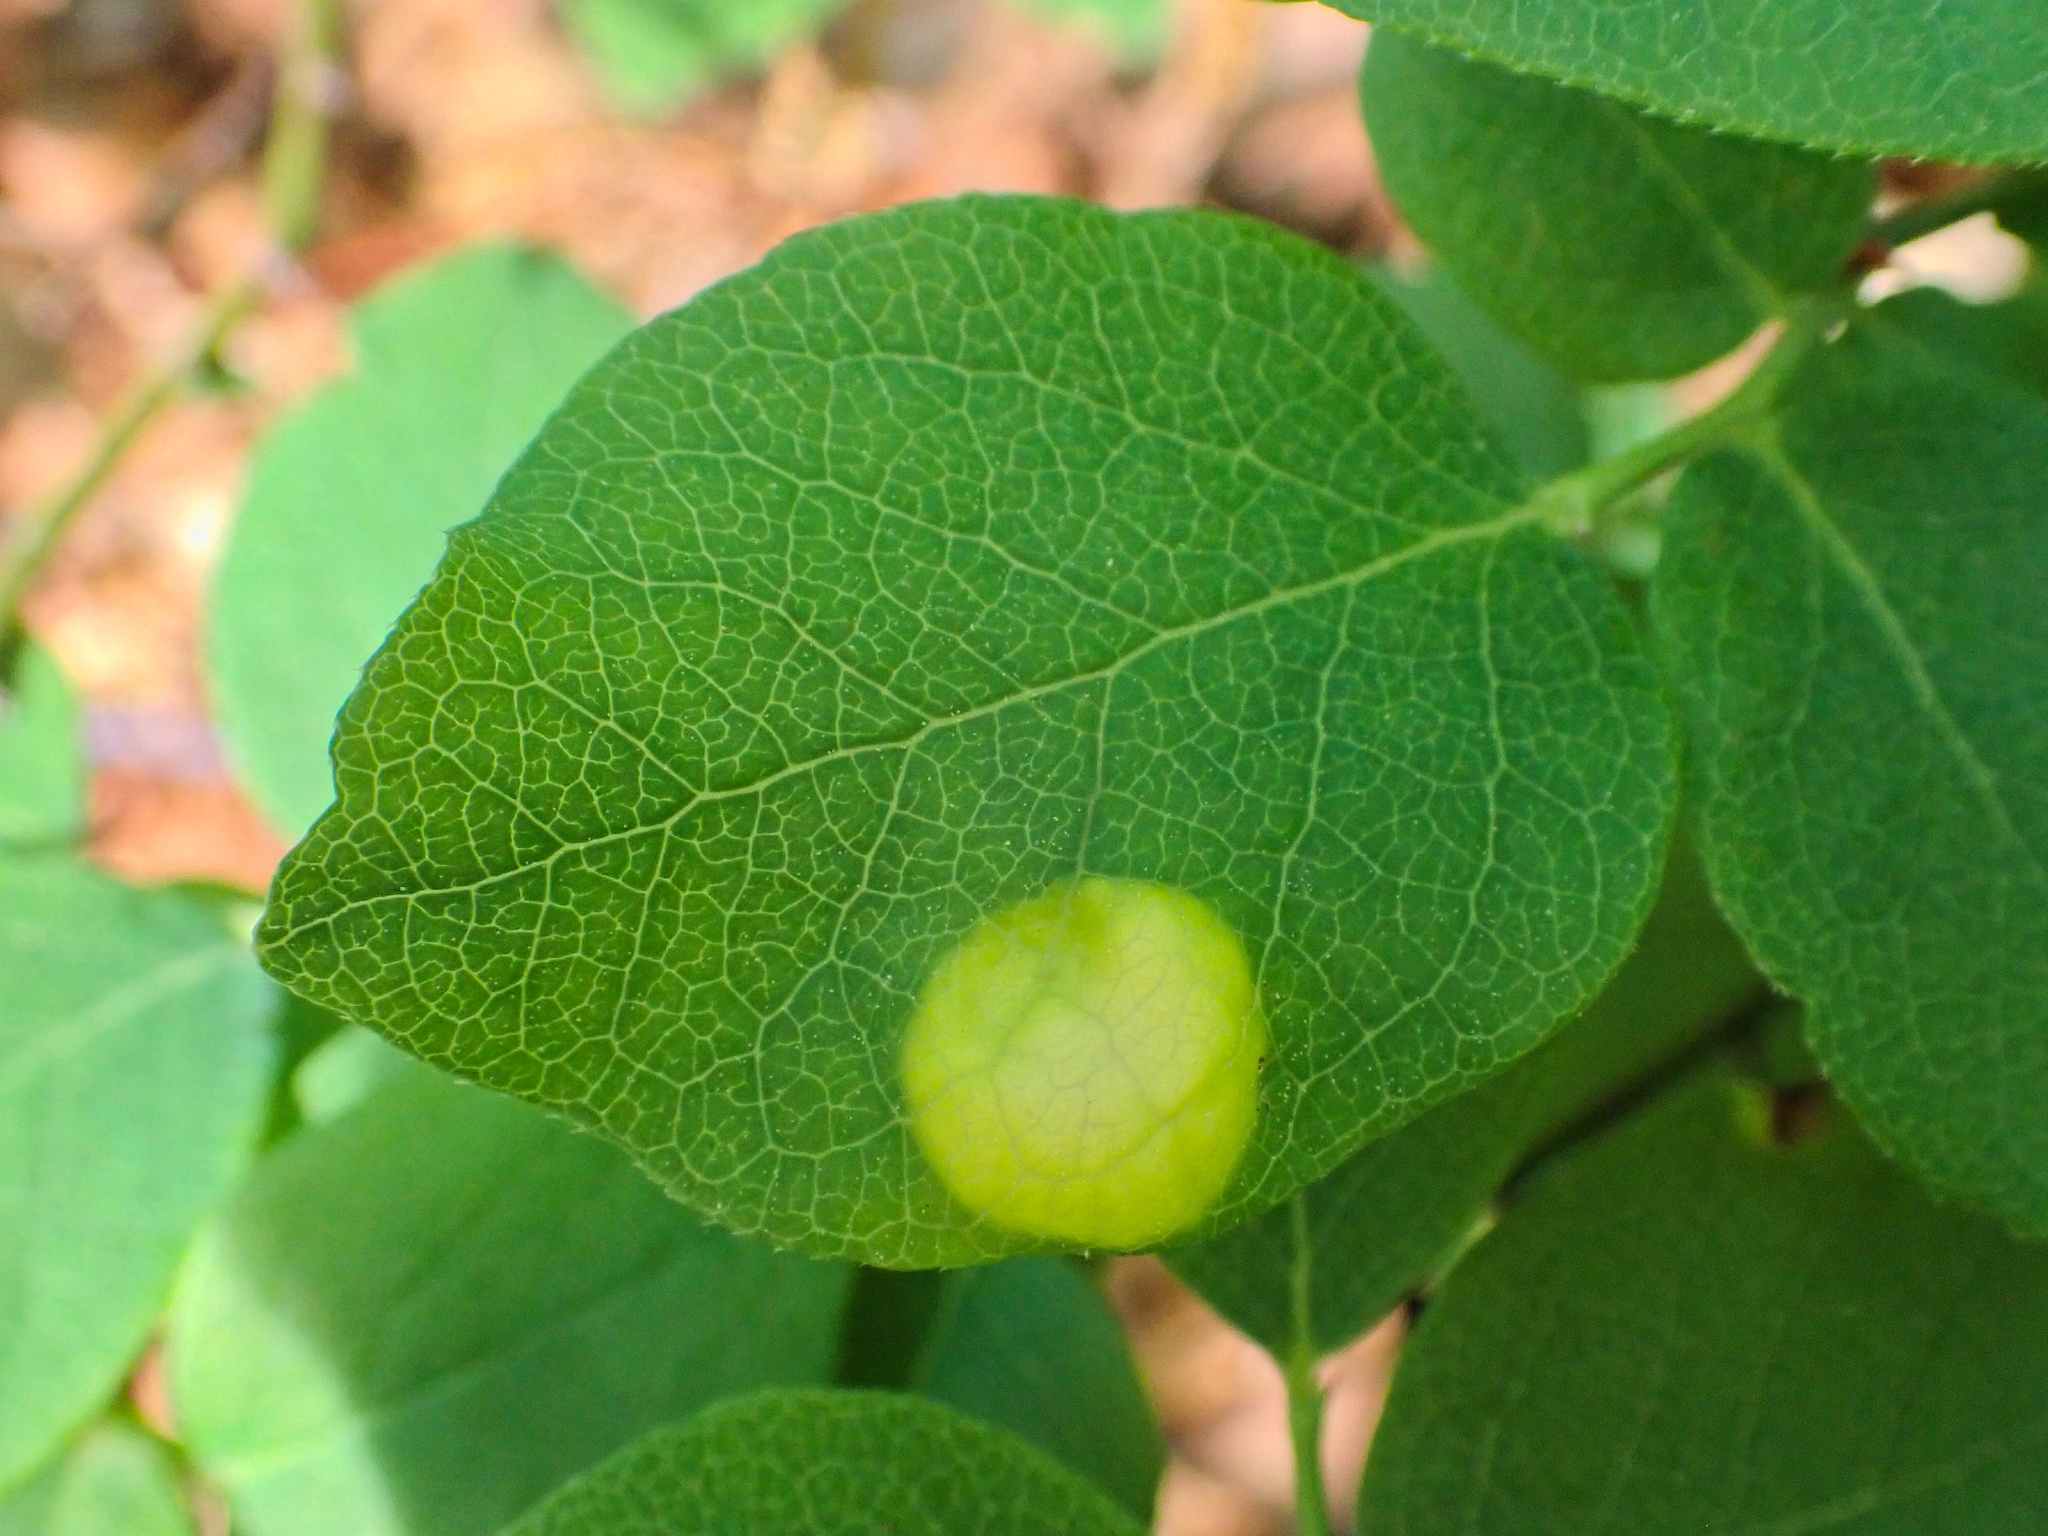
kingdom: Fungi
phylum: Basidiomycota
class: Exobasidiomycetes
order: Exobasidiales
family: Exobasidiaceae
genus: Exobasidium
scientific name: Exobasidium vaccinii
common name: Cowberry redleaf
